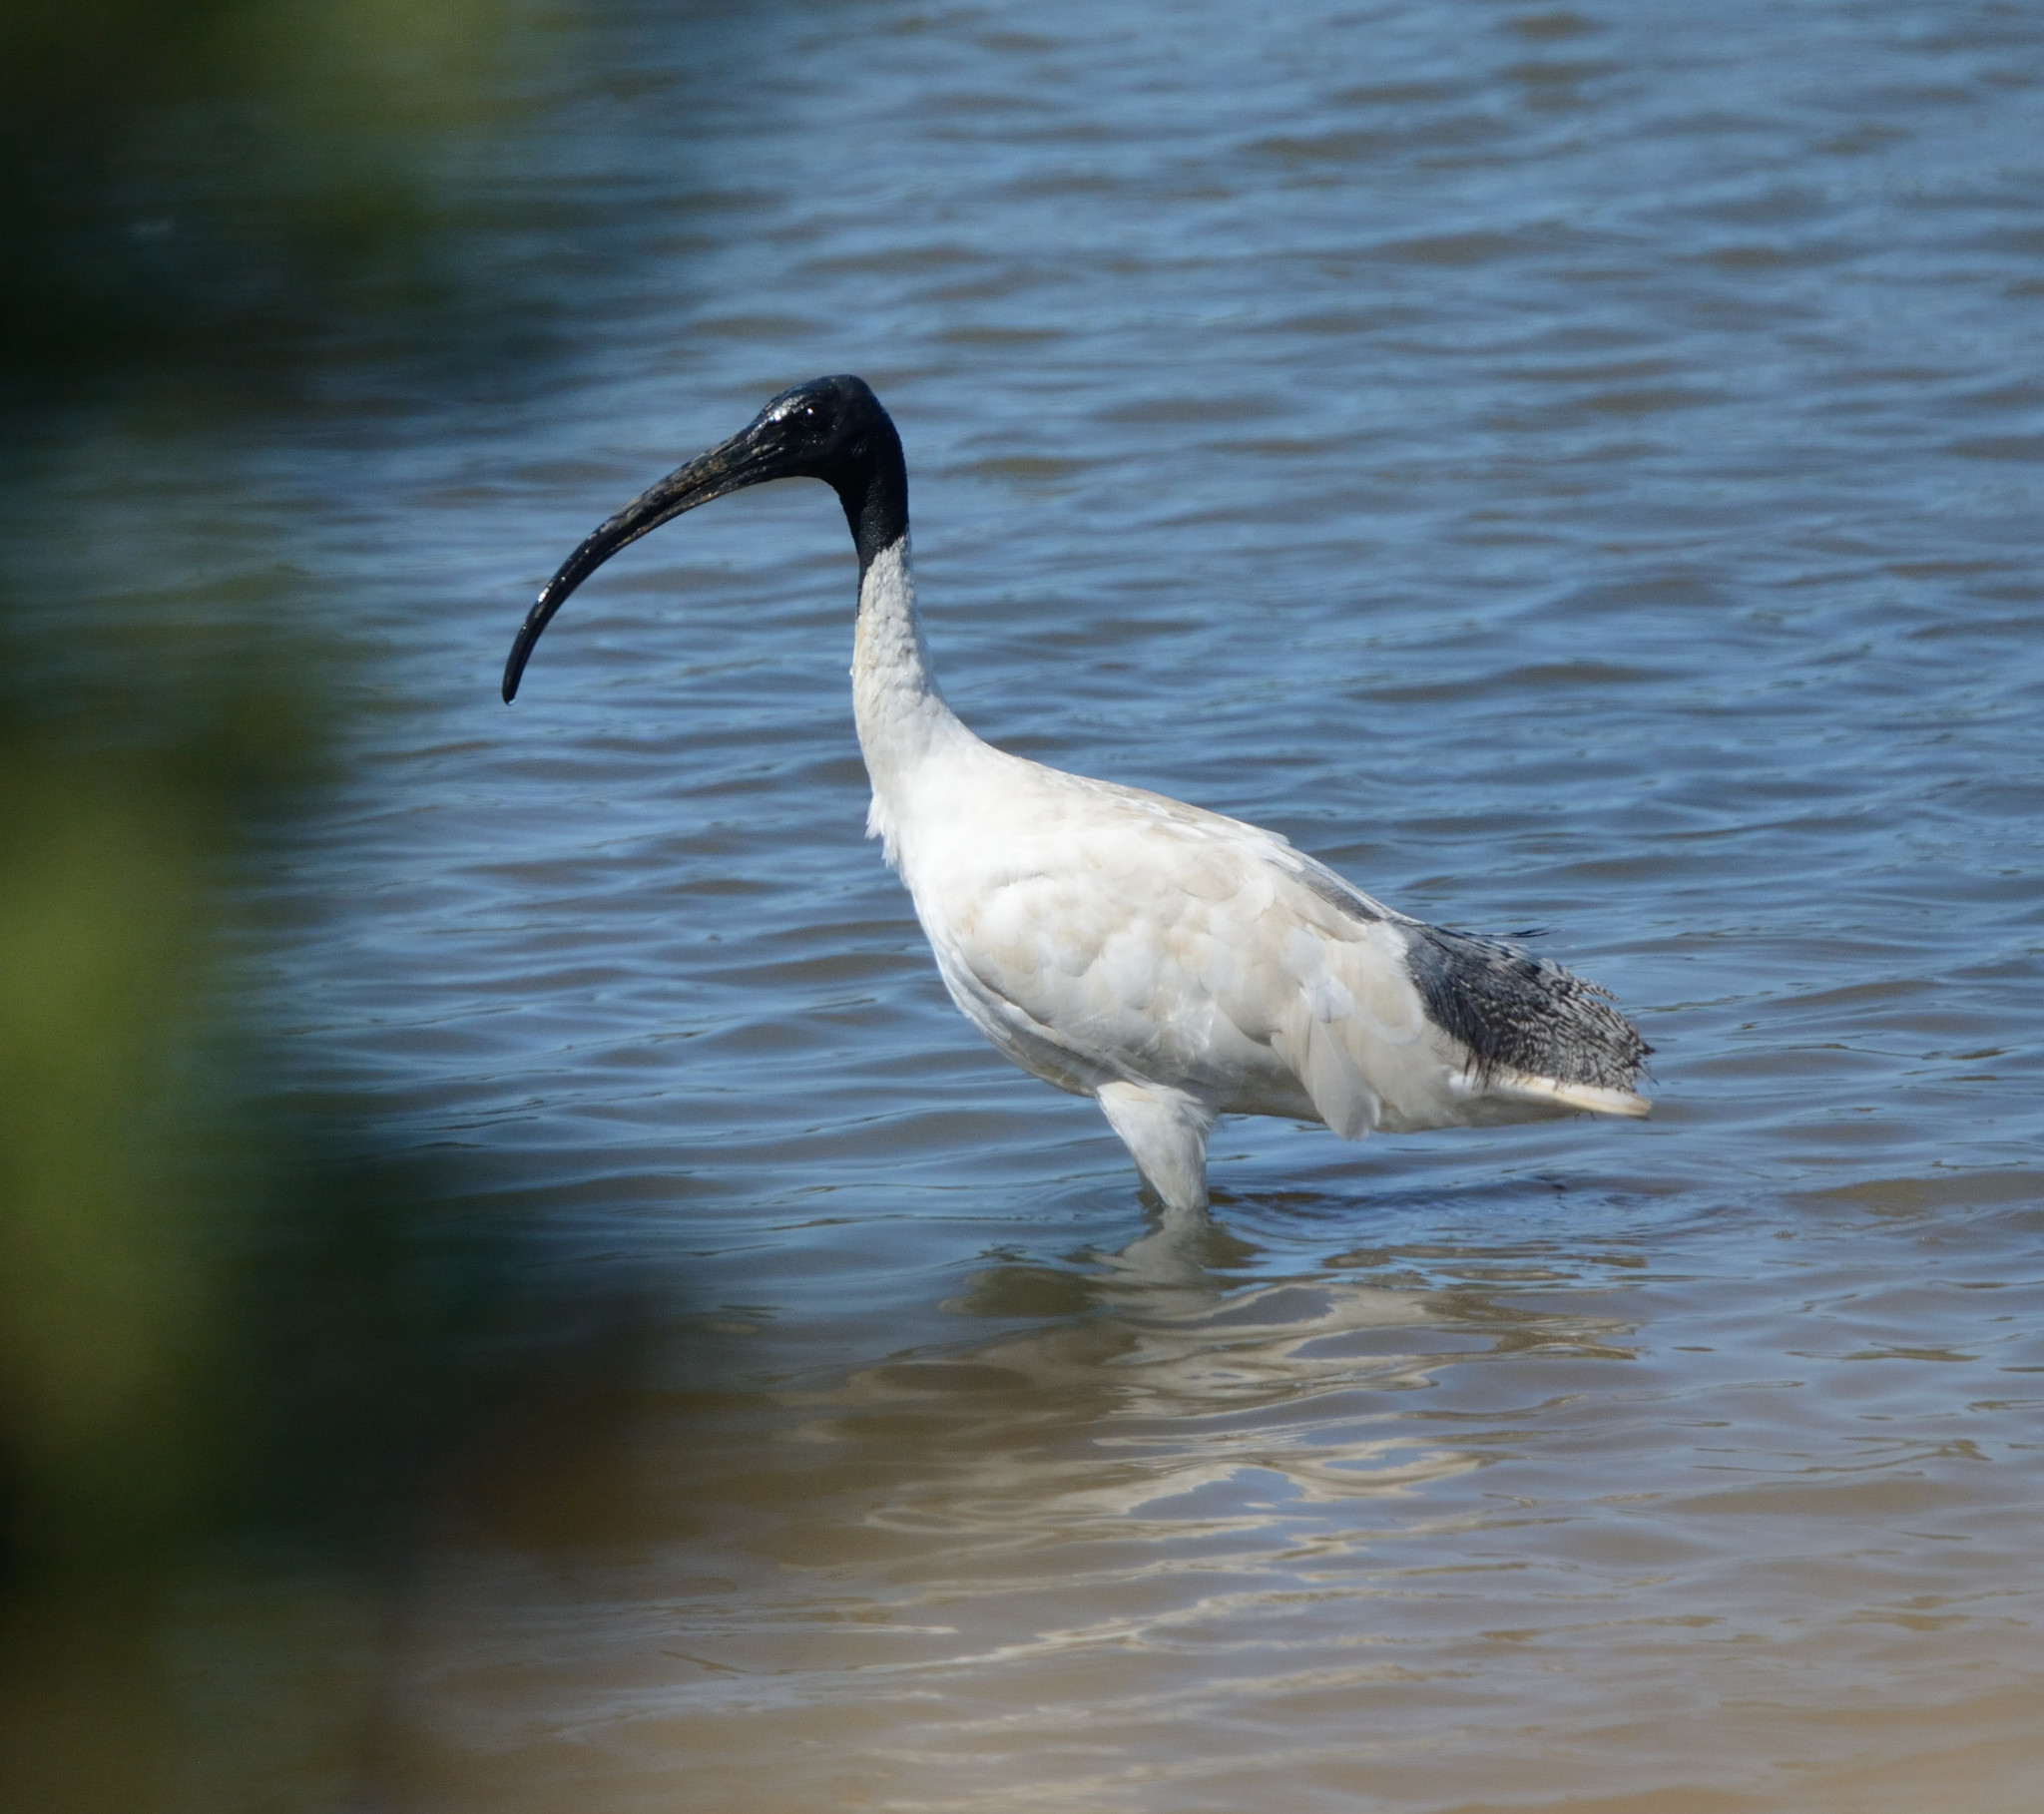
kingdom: Animalia
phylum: Chordata
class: Aves
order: Pelecaniformes
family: Threskiornithidae
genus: Threskiornis
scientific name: Threskiornis molucca
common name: Australian white ibis
